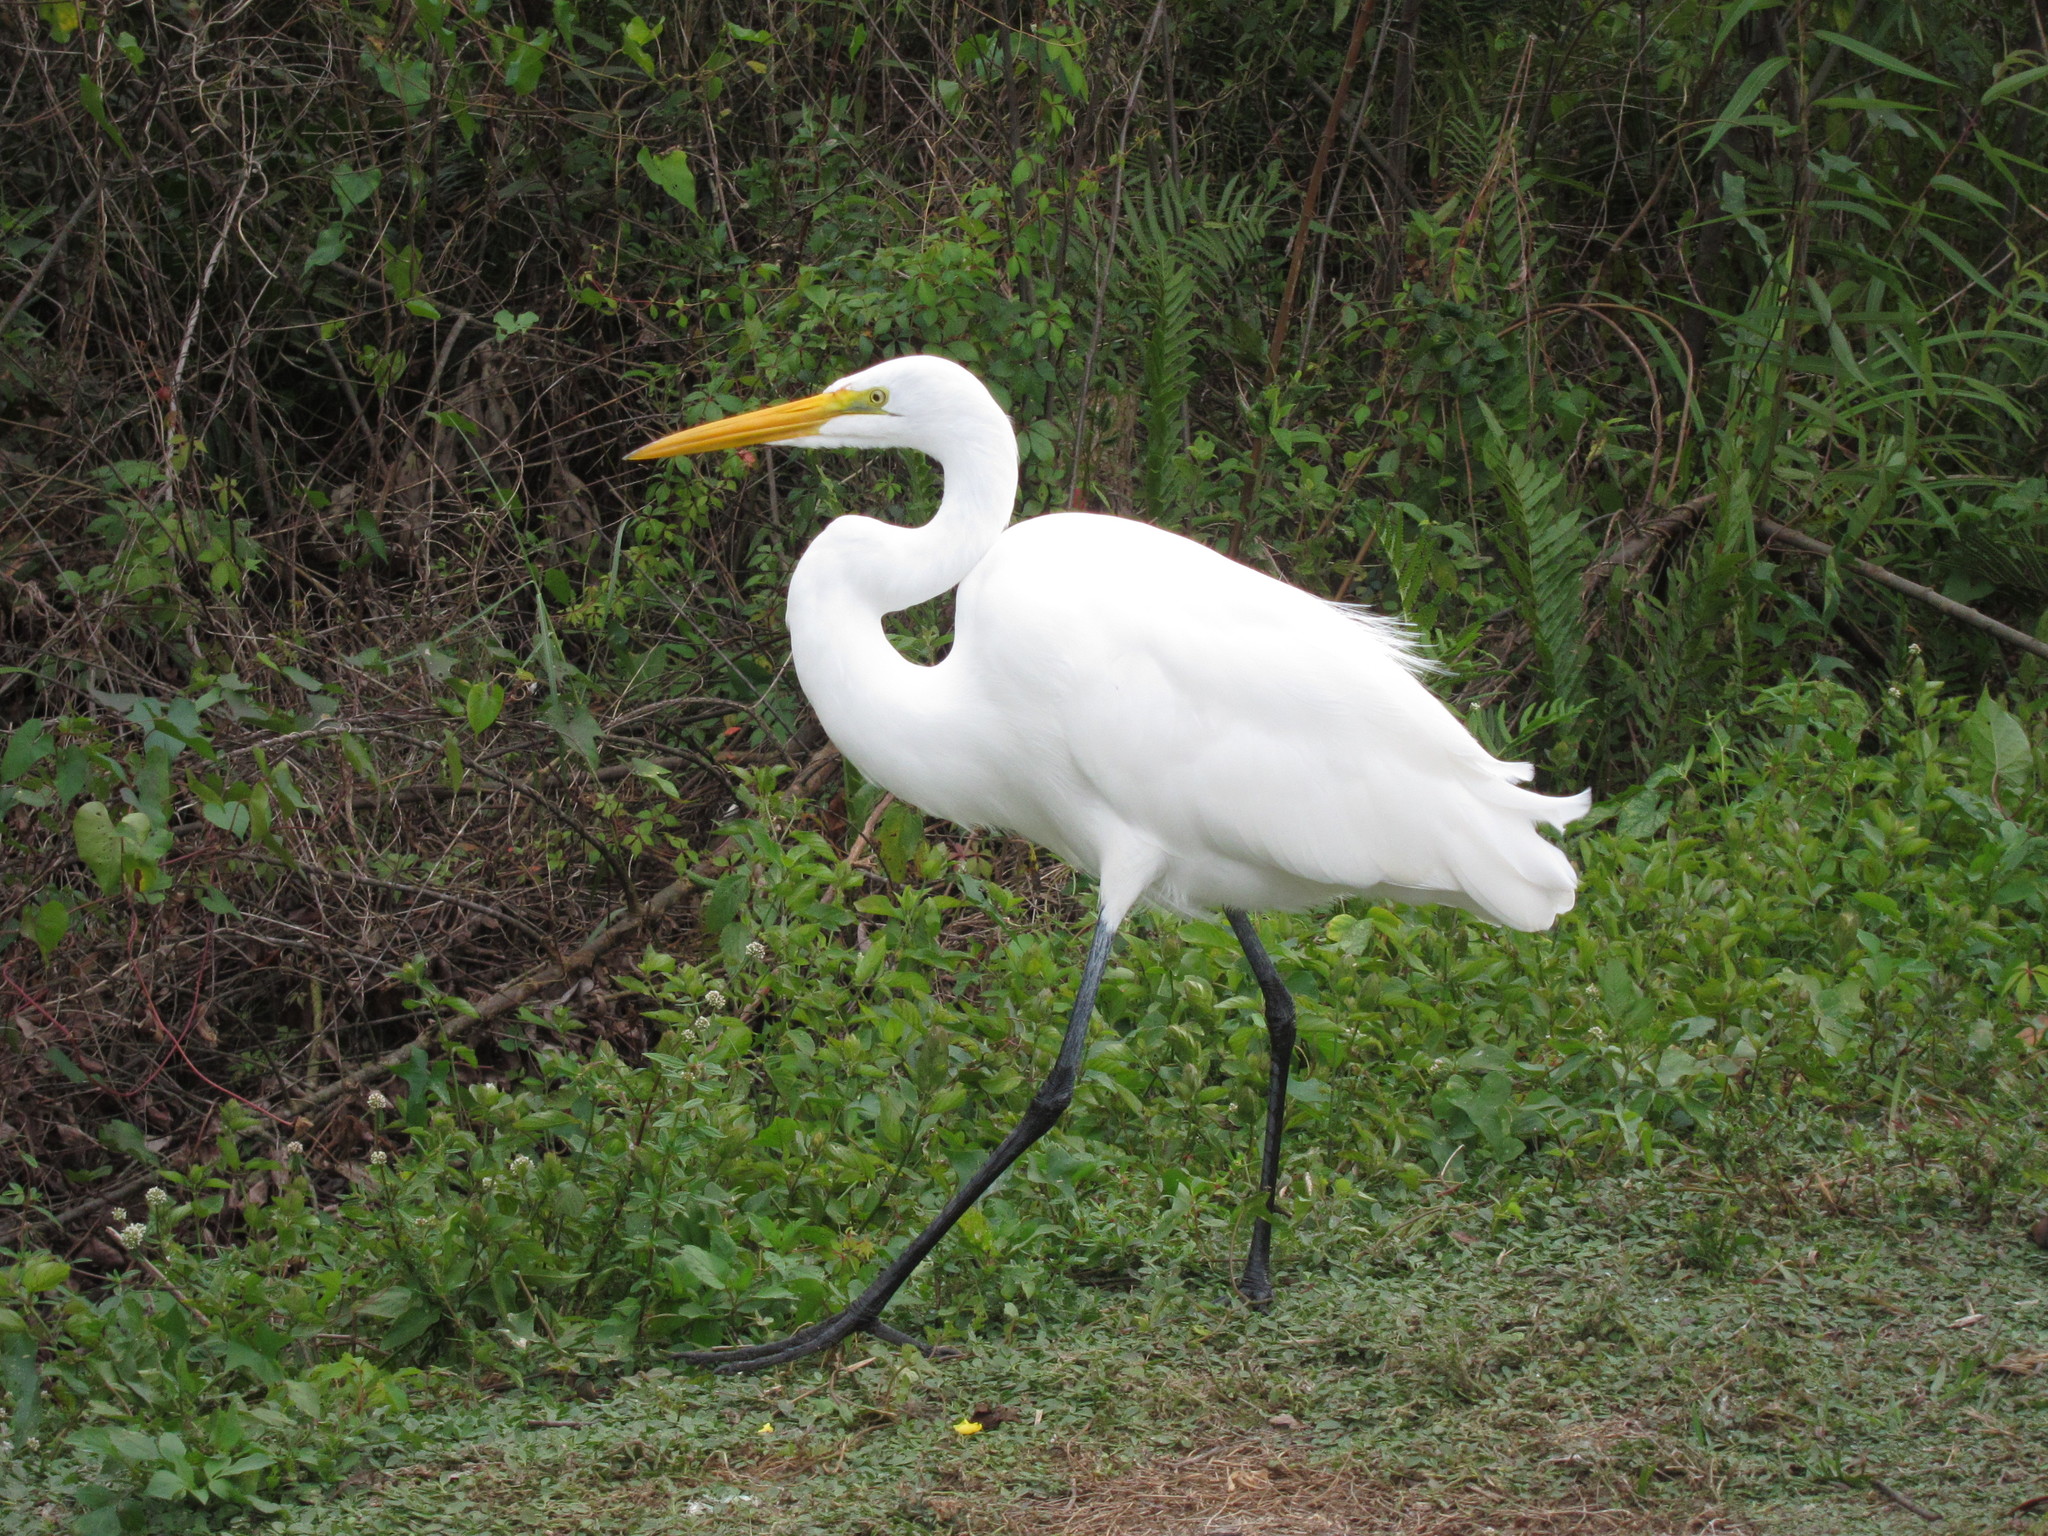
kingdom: Animalia
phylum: Chordata
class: Aves
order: Pelecaniformes
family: Ardeidae
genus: Ardea
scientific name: Ardea alba
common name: Great egret
